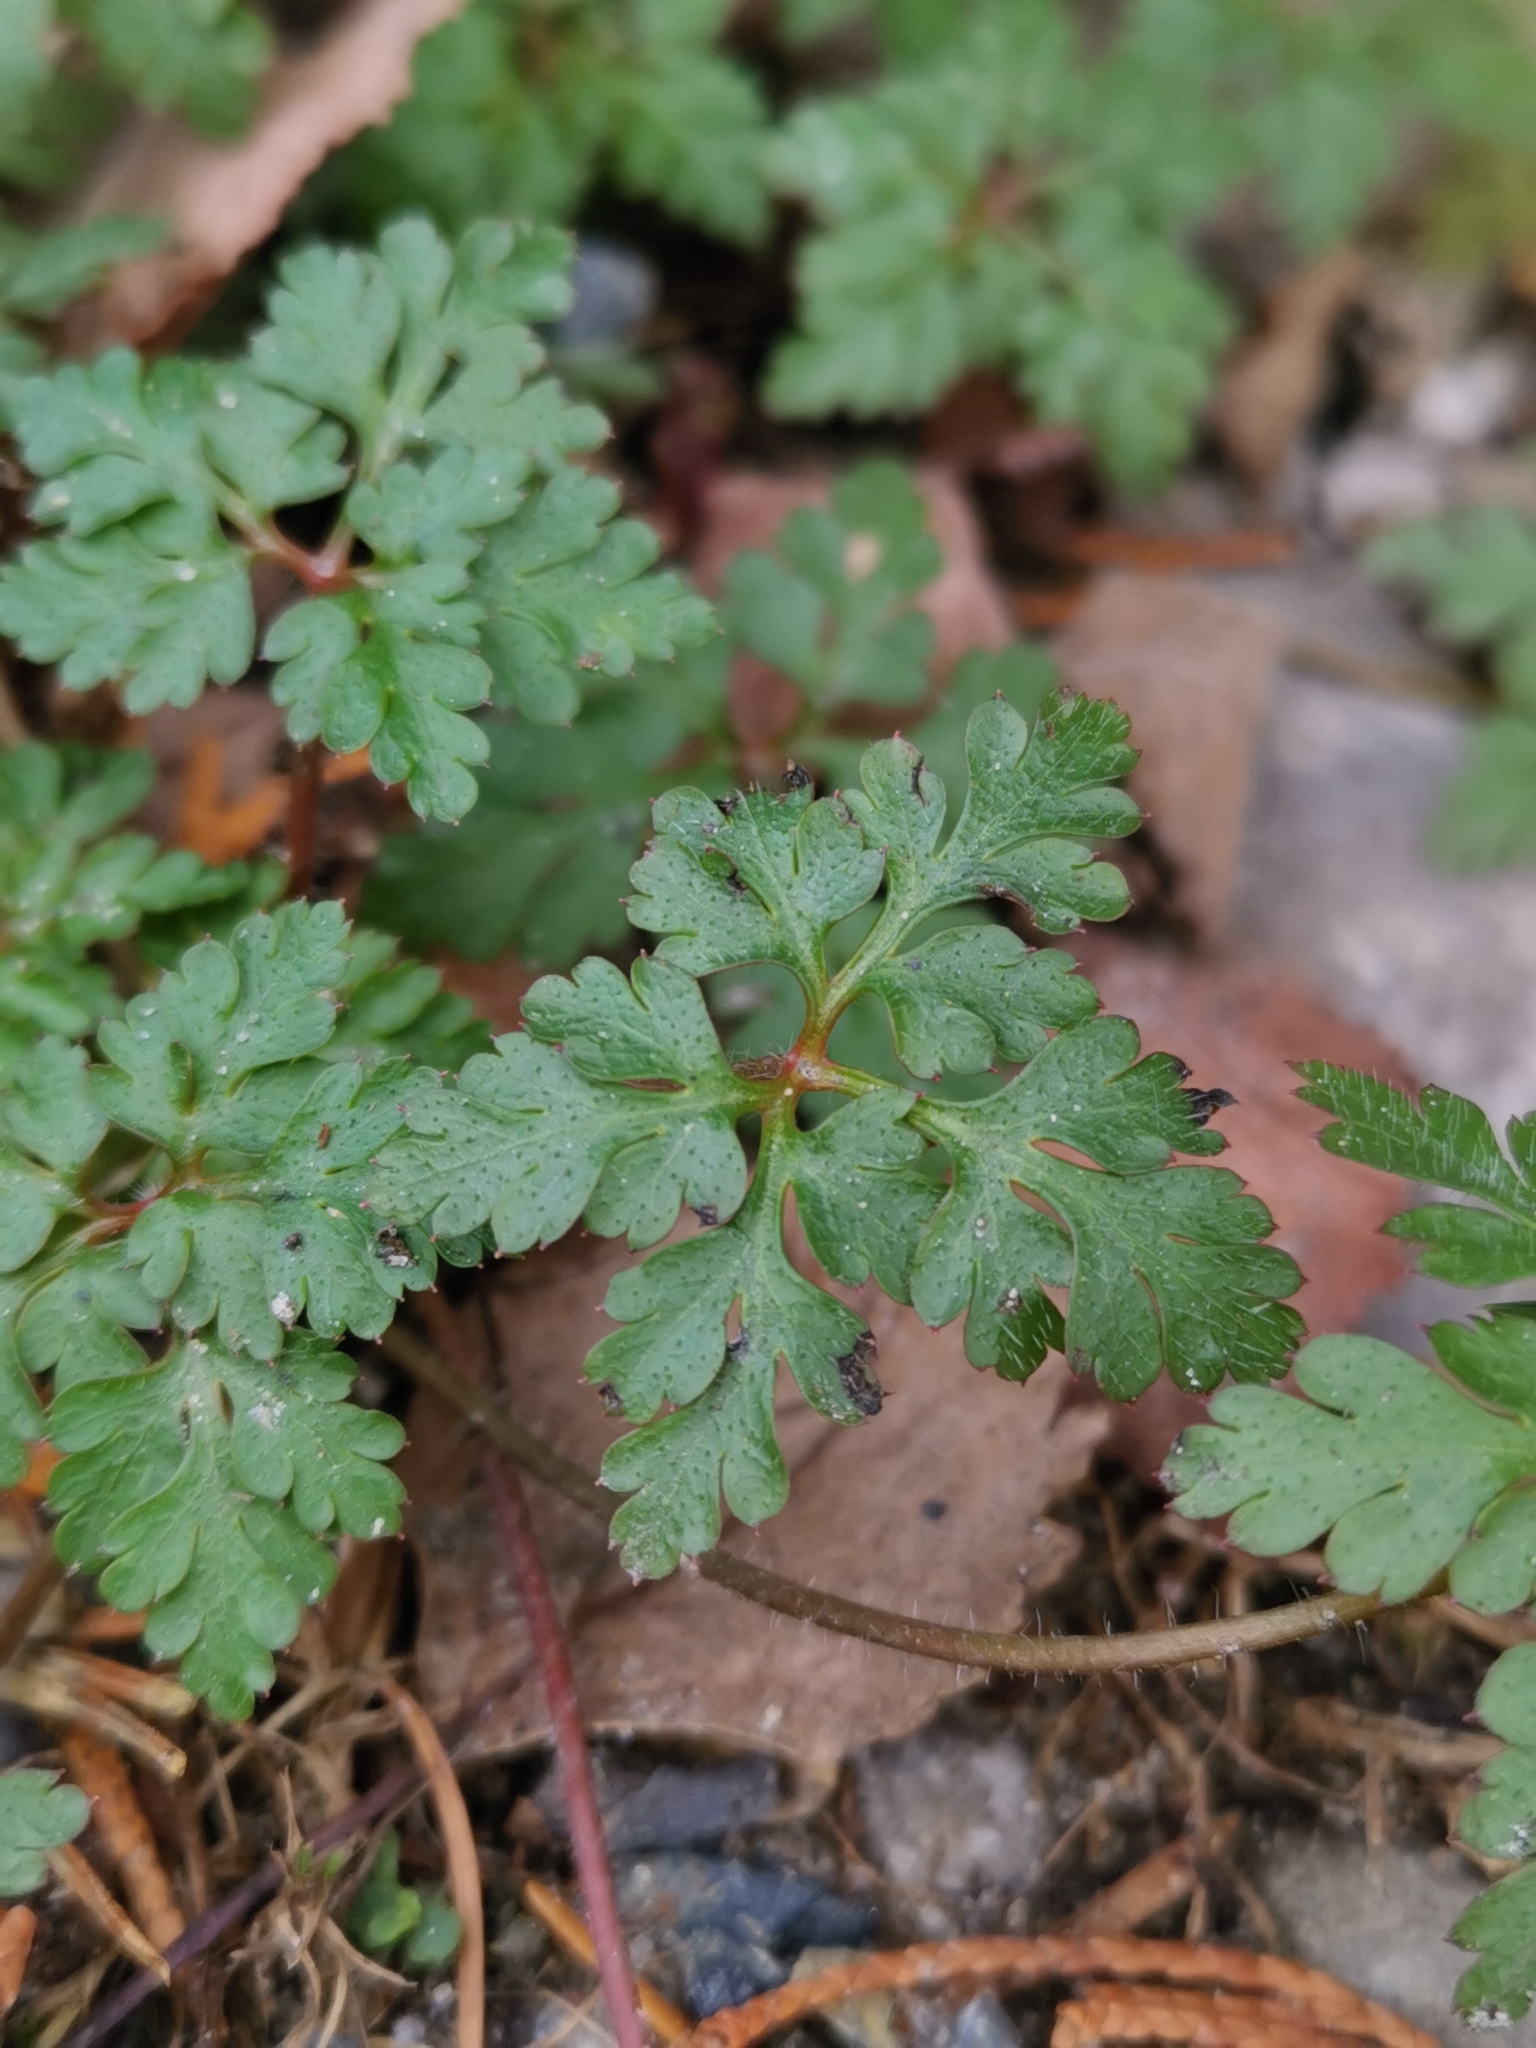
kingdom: Plantae
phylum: Tracheophyta
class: Magnoliopsida
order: Geraniales
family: Geraniaceae
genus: Geranium
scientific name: Geranium robertianum
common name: Herb-robert
